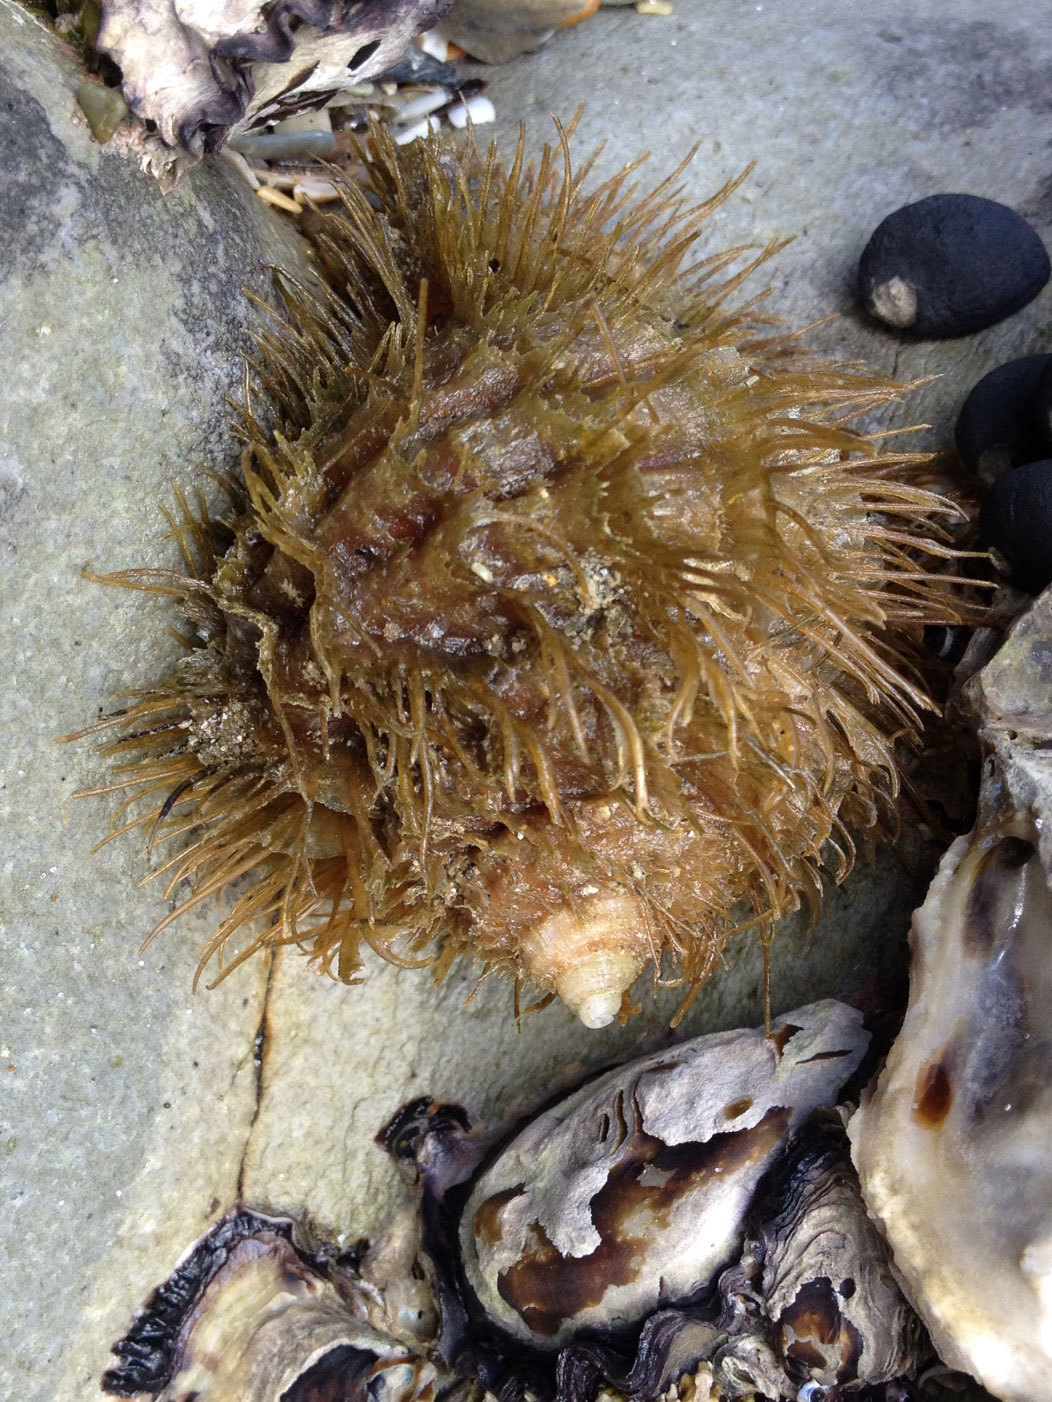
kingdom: Animalia
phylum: Mollusca
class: Gastropoda
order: Littorinimorpha
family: Cymatiidae
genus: Monoplex
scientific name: Monoplex parthenopeus
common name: Giant triton
